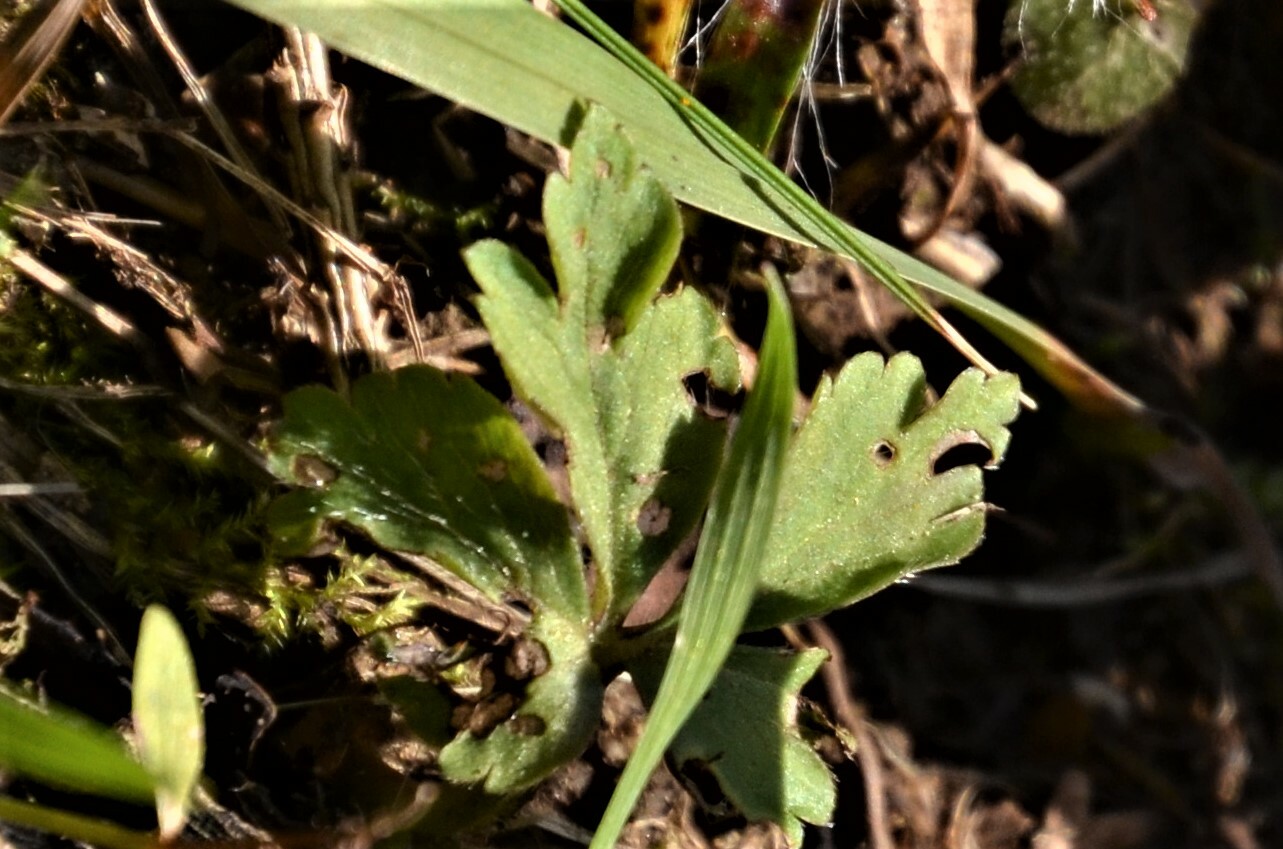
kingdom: Plantae
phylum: Tracheophyta
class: Magnoliopsida
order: Ranunculales
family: Ranunculaceae
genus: Anemone
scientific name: Anemone nemorosa
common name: Wood anemone
